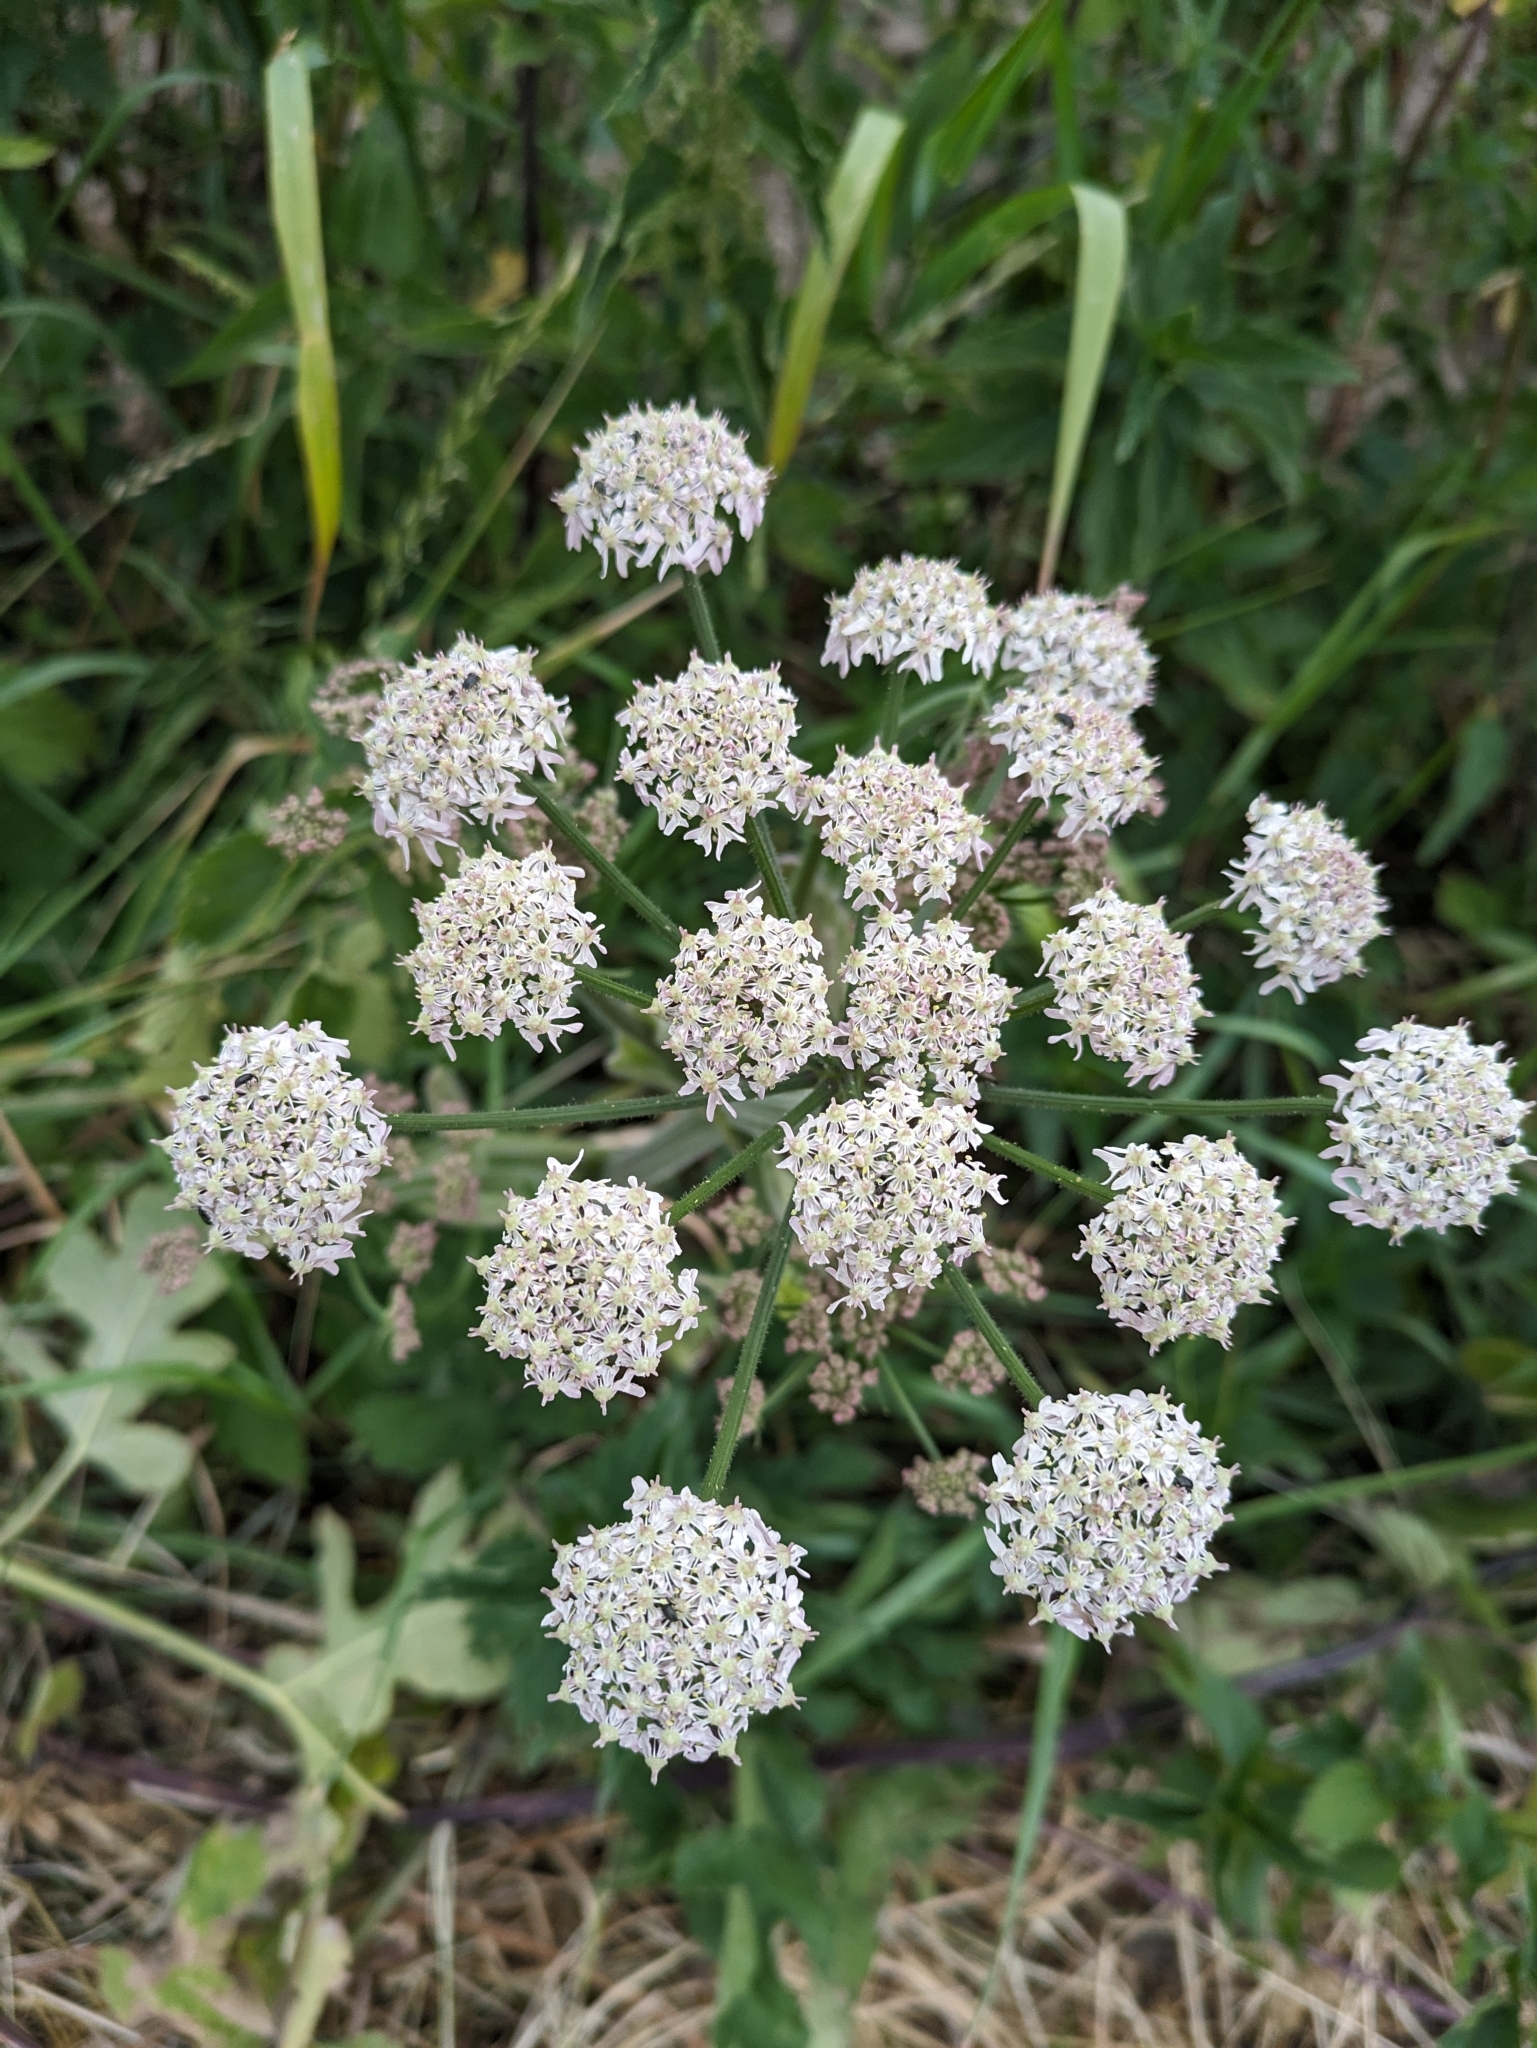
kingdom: Plantae
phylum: Tracheophyta
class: Magnoliopsida
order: Apiales
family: Apiaceae
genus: Heracleum
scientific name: Heracleum sphondylium
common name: Hogweed
